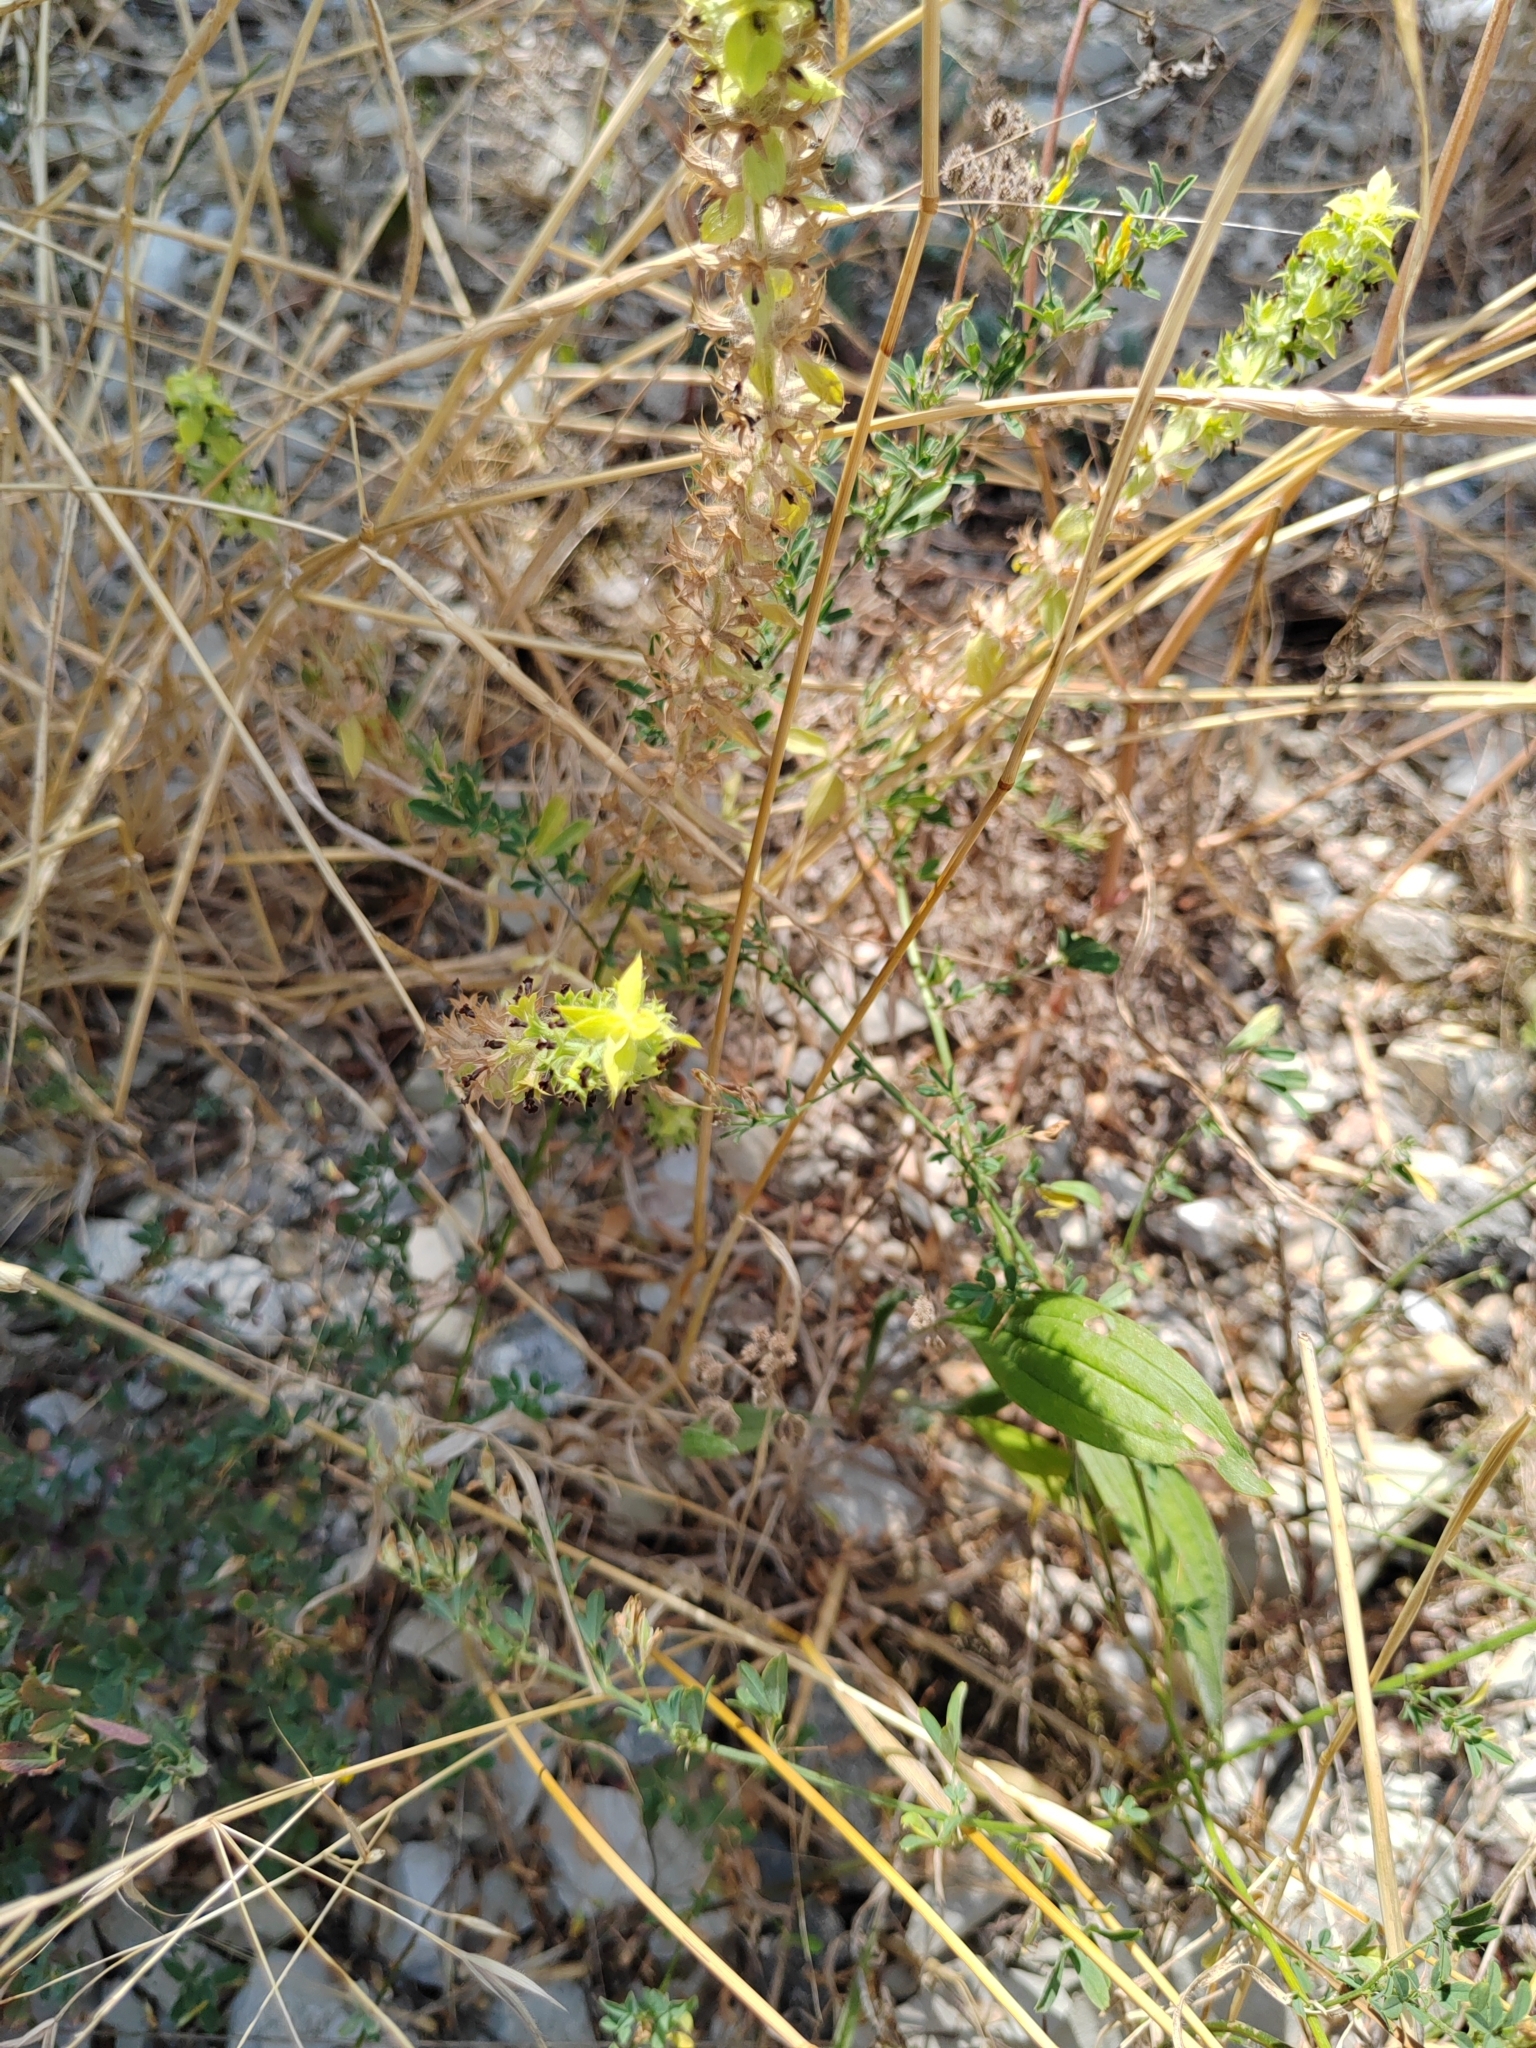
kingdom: Plantae
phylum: Tracheophyta
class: Magnoliopsida
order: Lamiales
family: Lamiaceae
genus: Sideritis
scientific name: Sideritis montana
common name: Mountain ironwort
